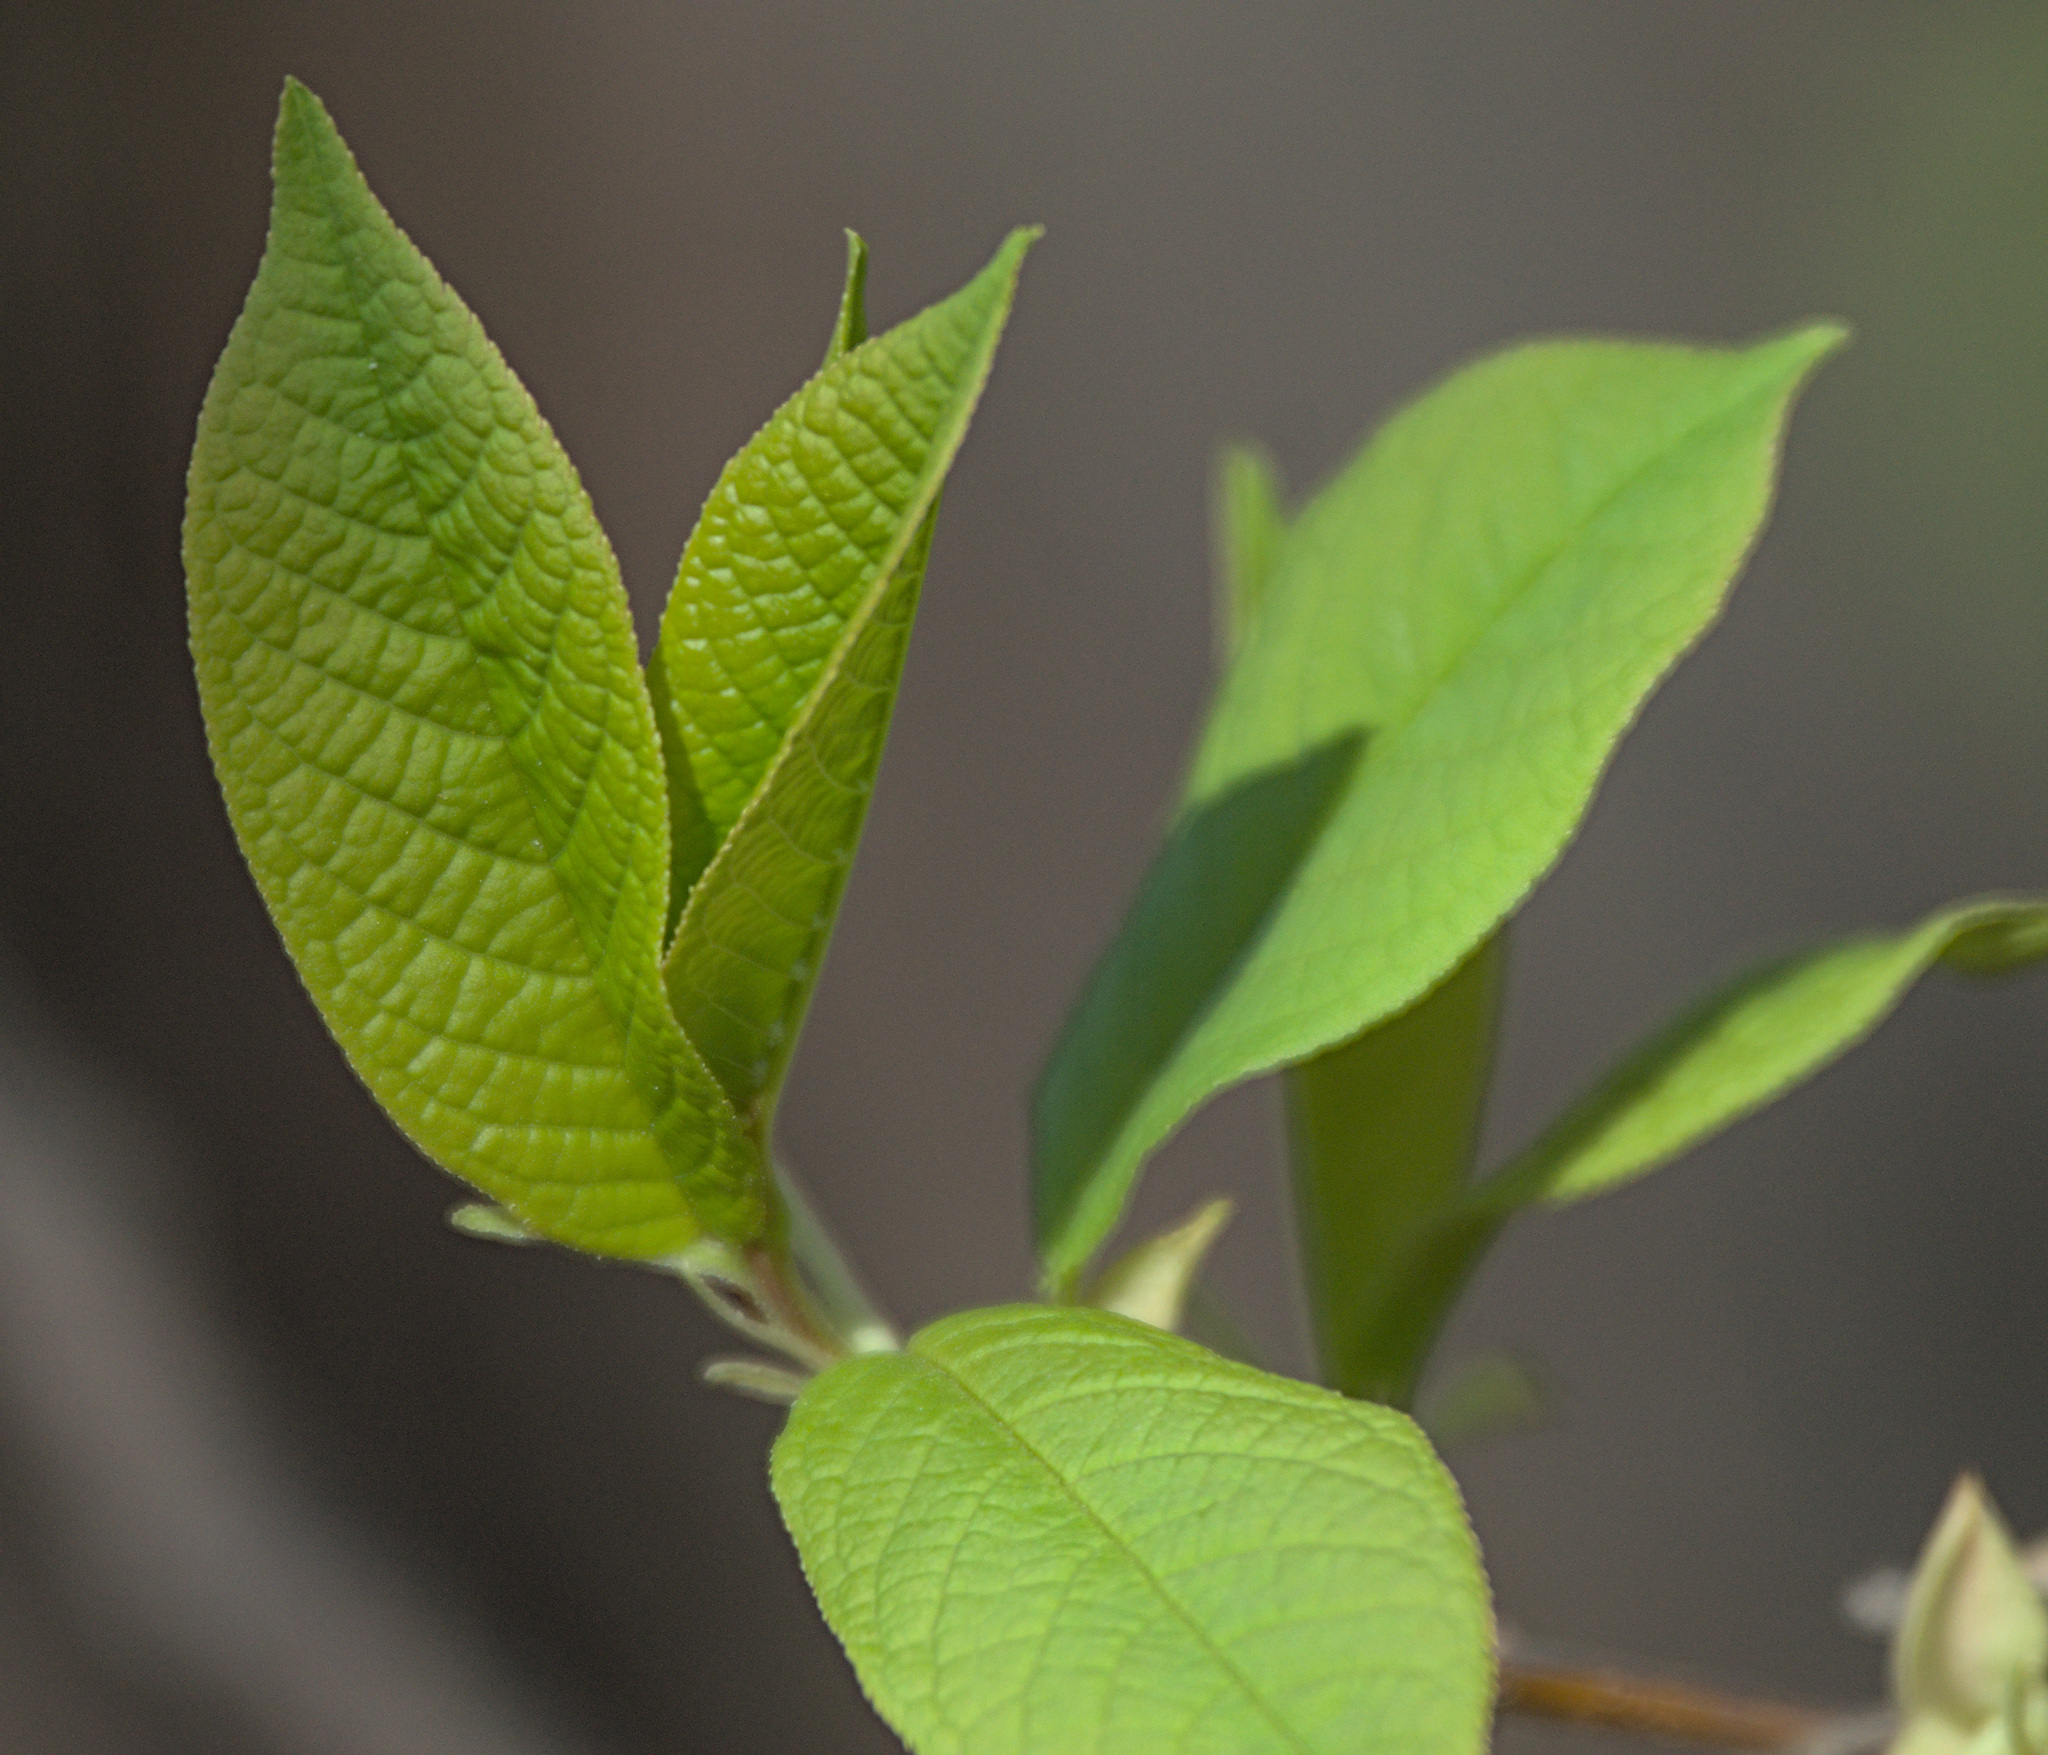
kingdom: Plantae
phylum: Tracheophyta
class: Magnoliopsida
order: Rosales
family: Rosaceae
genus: Prunus
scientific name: Prunus padus
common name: Bird cherry
